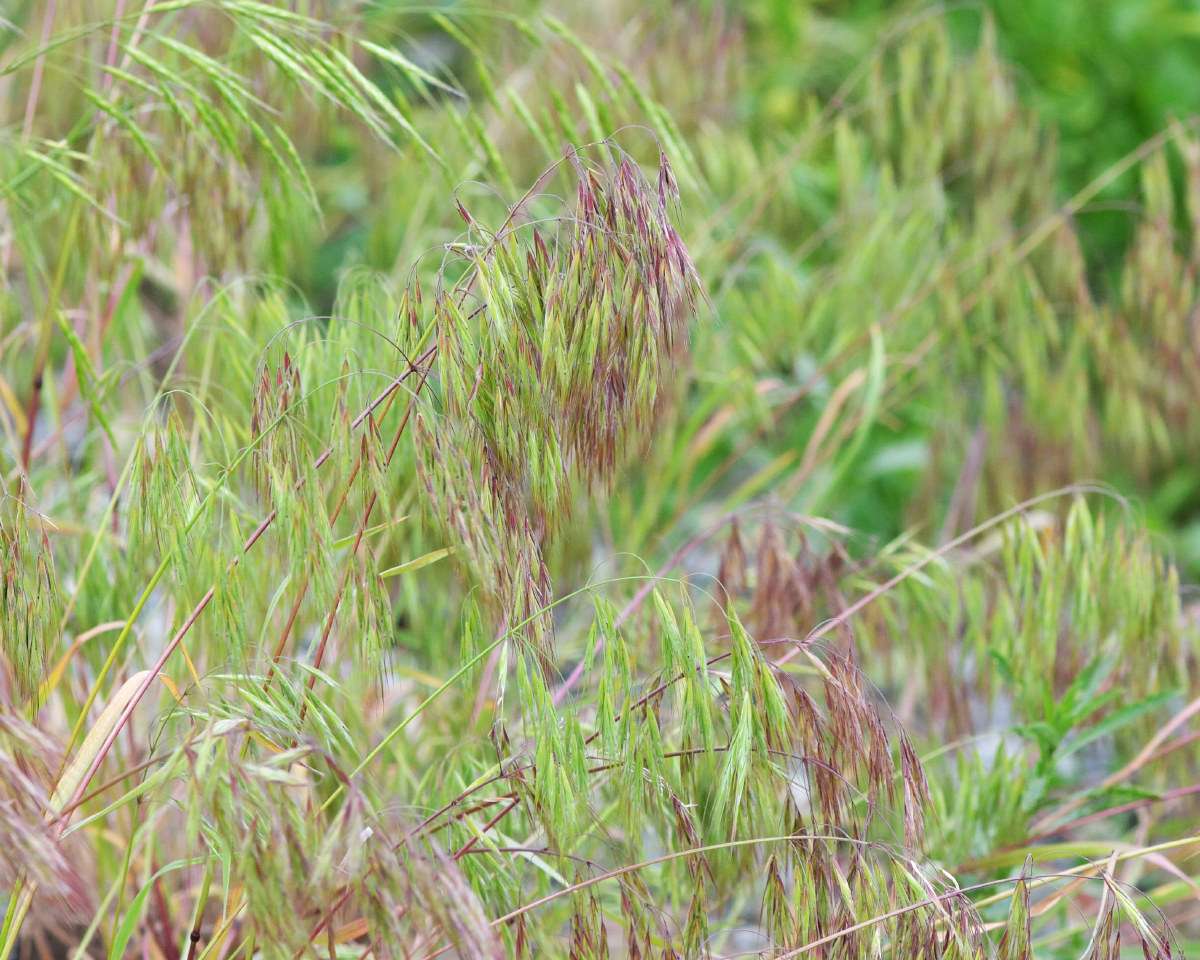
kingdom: Plantae
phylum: Tracheophyta
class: Liliopsida
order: Poales
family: Poaceae
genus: Bromus
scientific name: Bromus tectorum
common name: Cheatgrass
